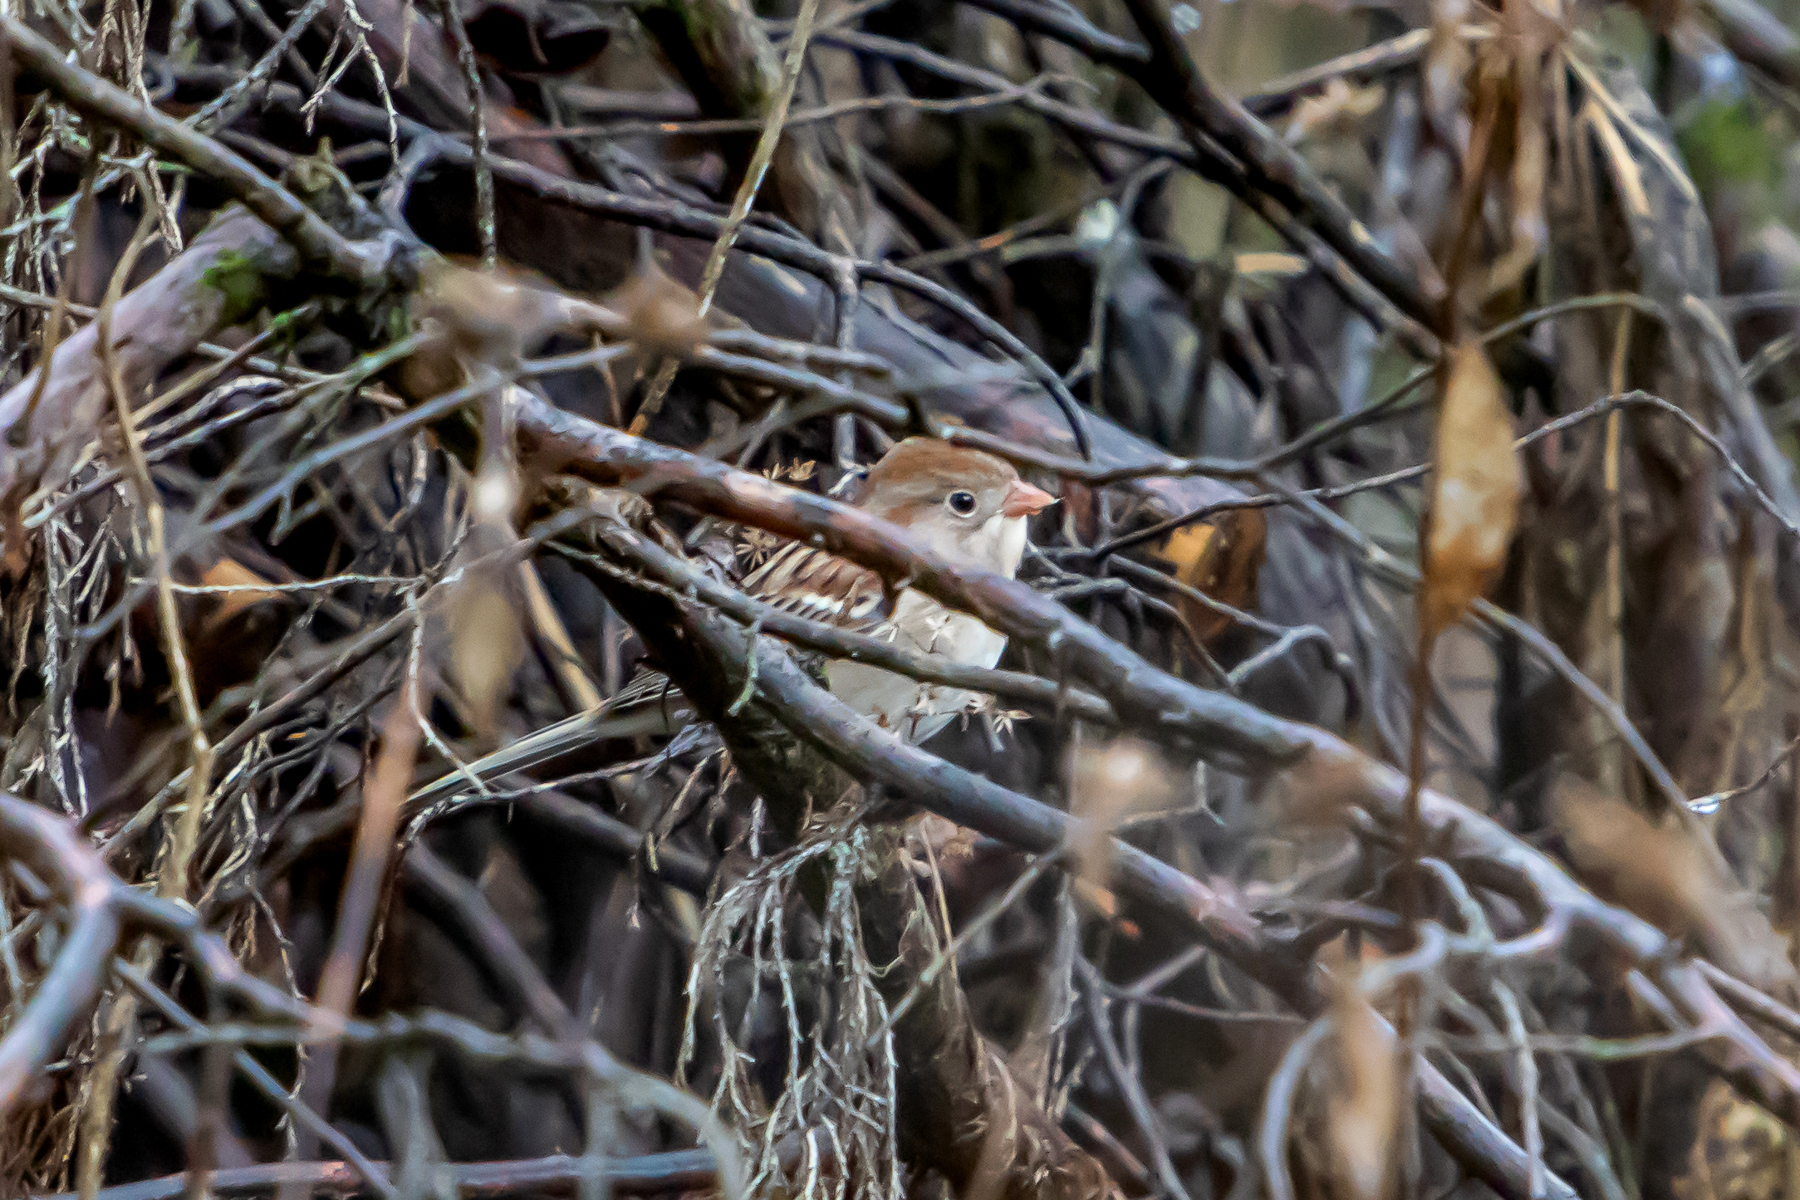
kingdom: Animalia
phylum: Chordata
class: Aves
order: Passeriformes
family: Passerellidae
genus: Spizella
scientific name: Spizella pusilla
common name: Field sparrow
